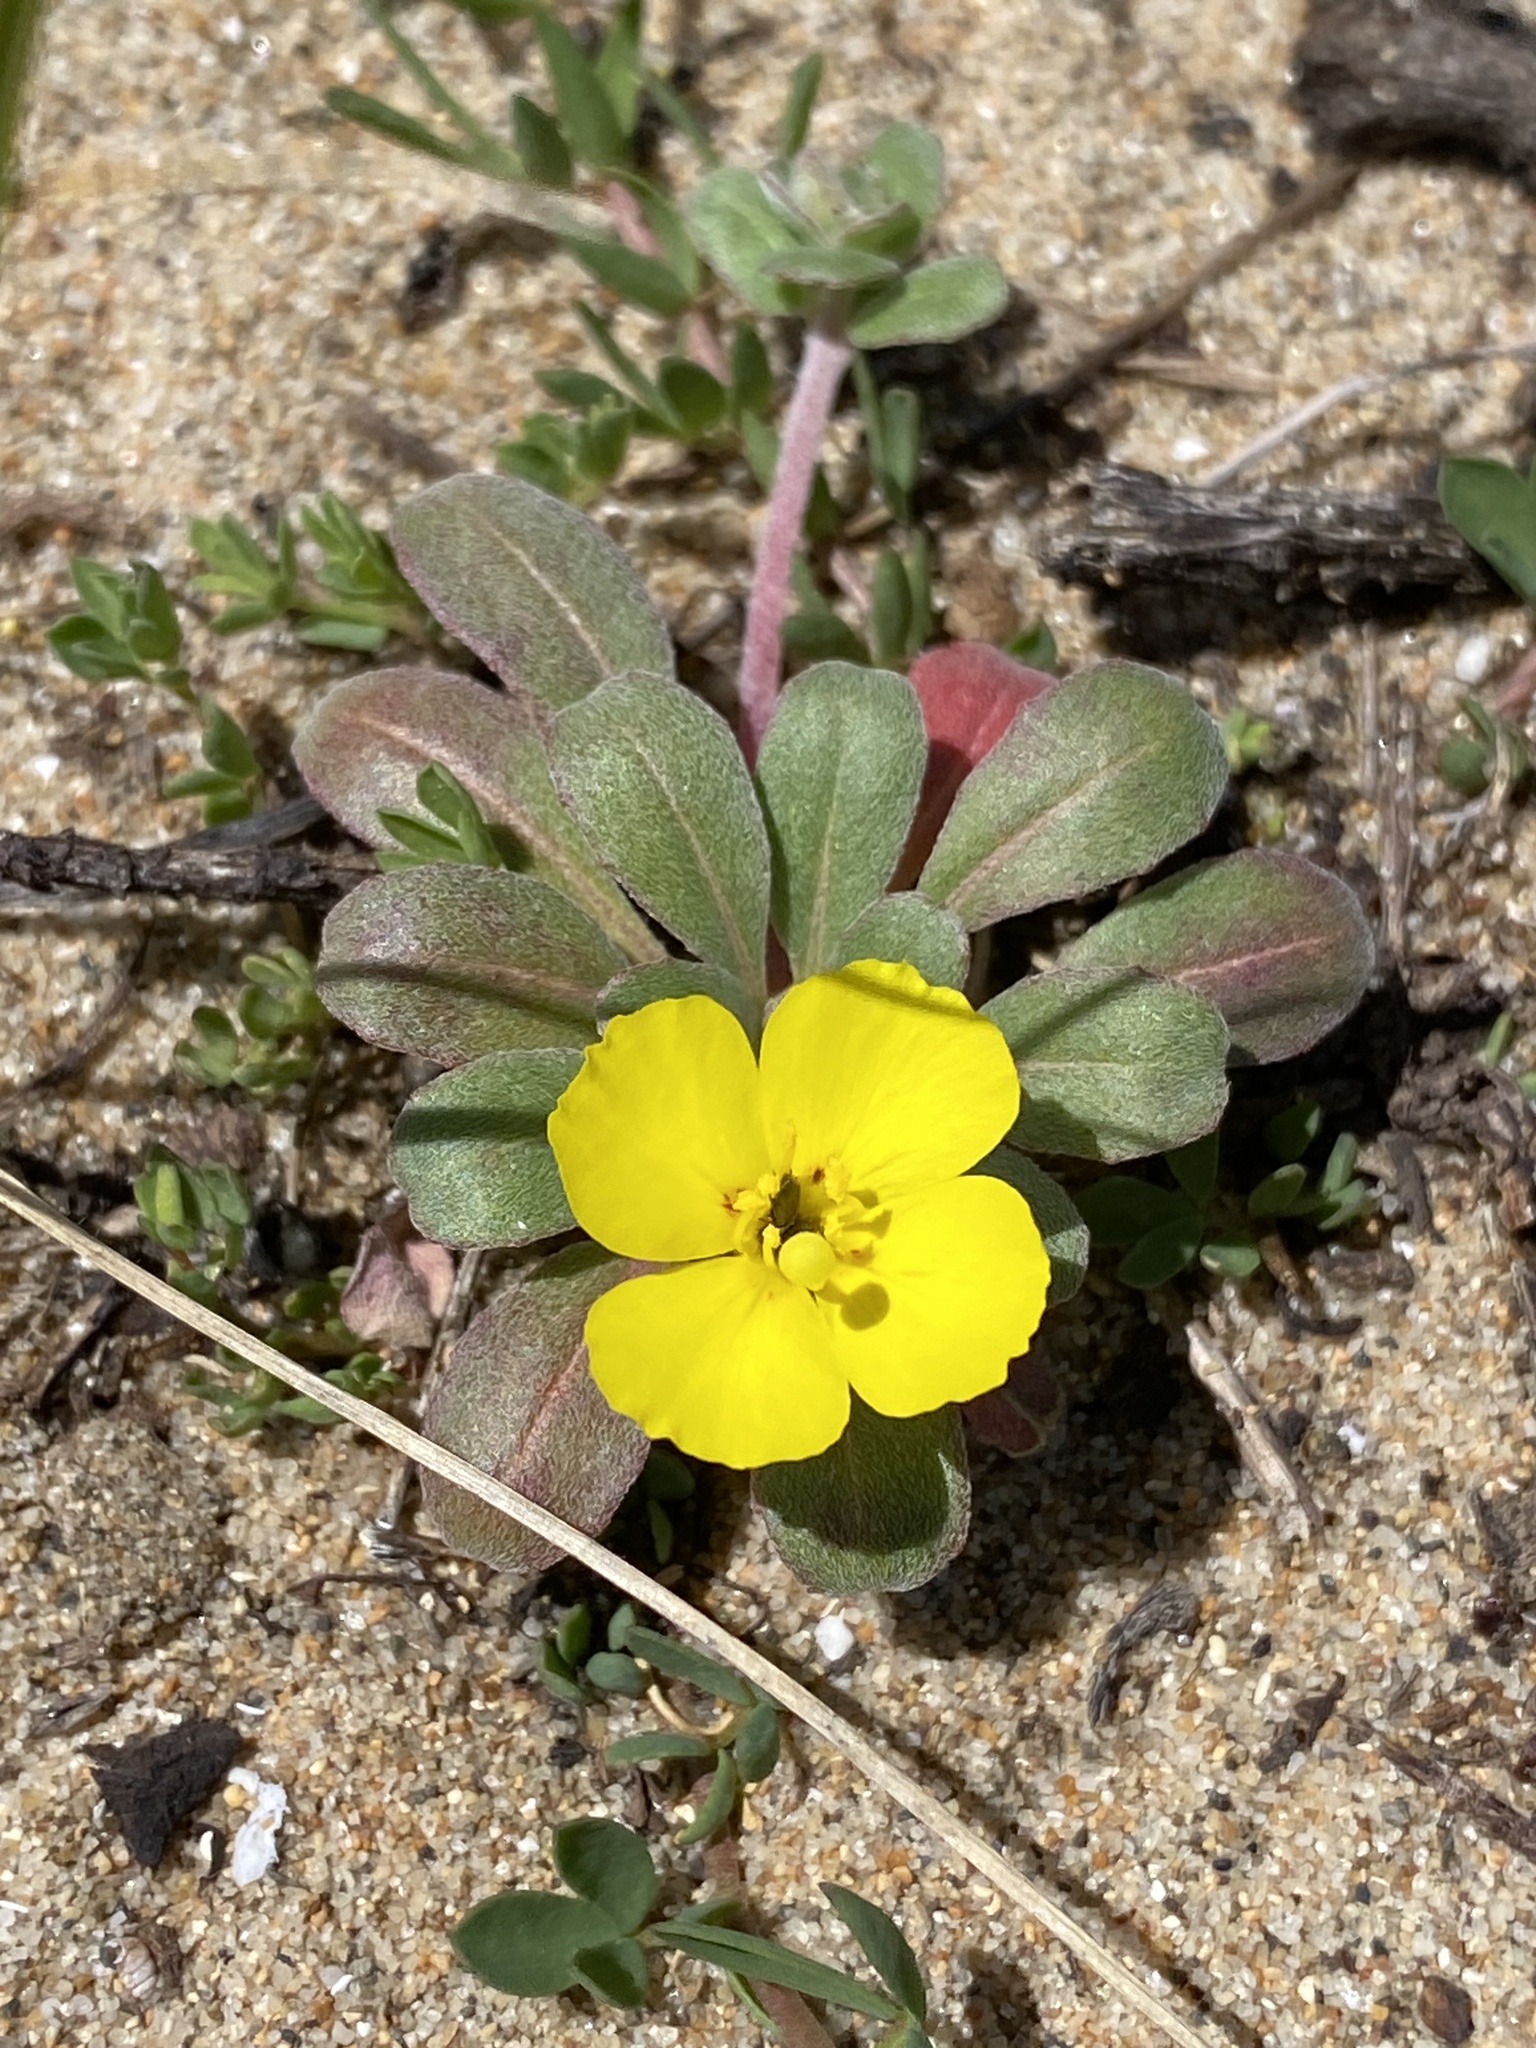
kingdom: Plantae
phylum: Tracheophyta
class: Magnoliopsida
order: Myrtales
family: Onagraceae
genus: Camissoniopsis
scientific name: Camissoniopsis cheiranthifolia
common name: Beach suncup
